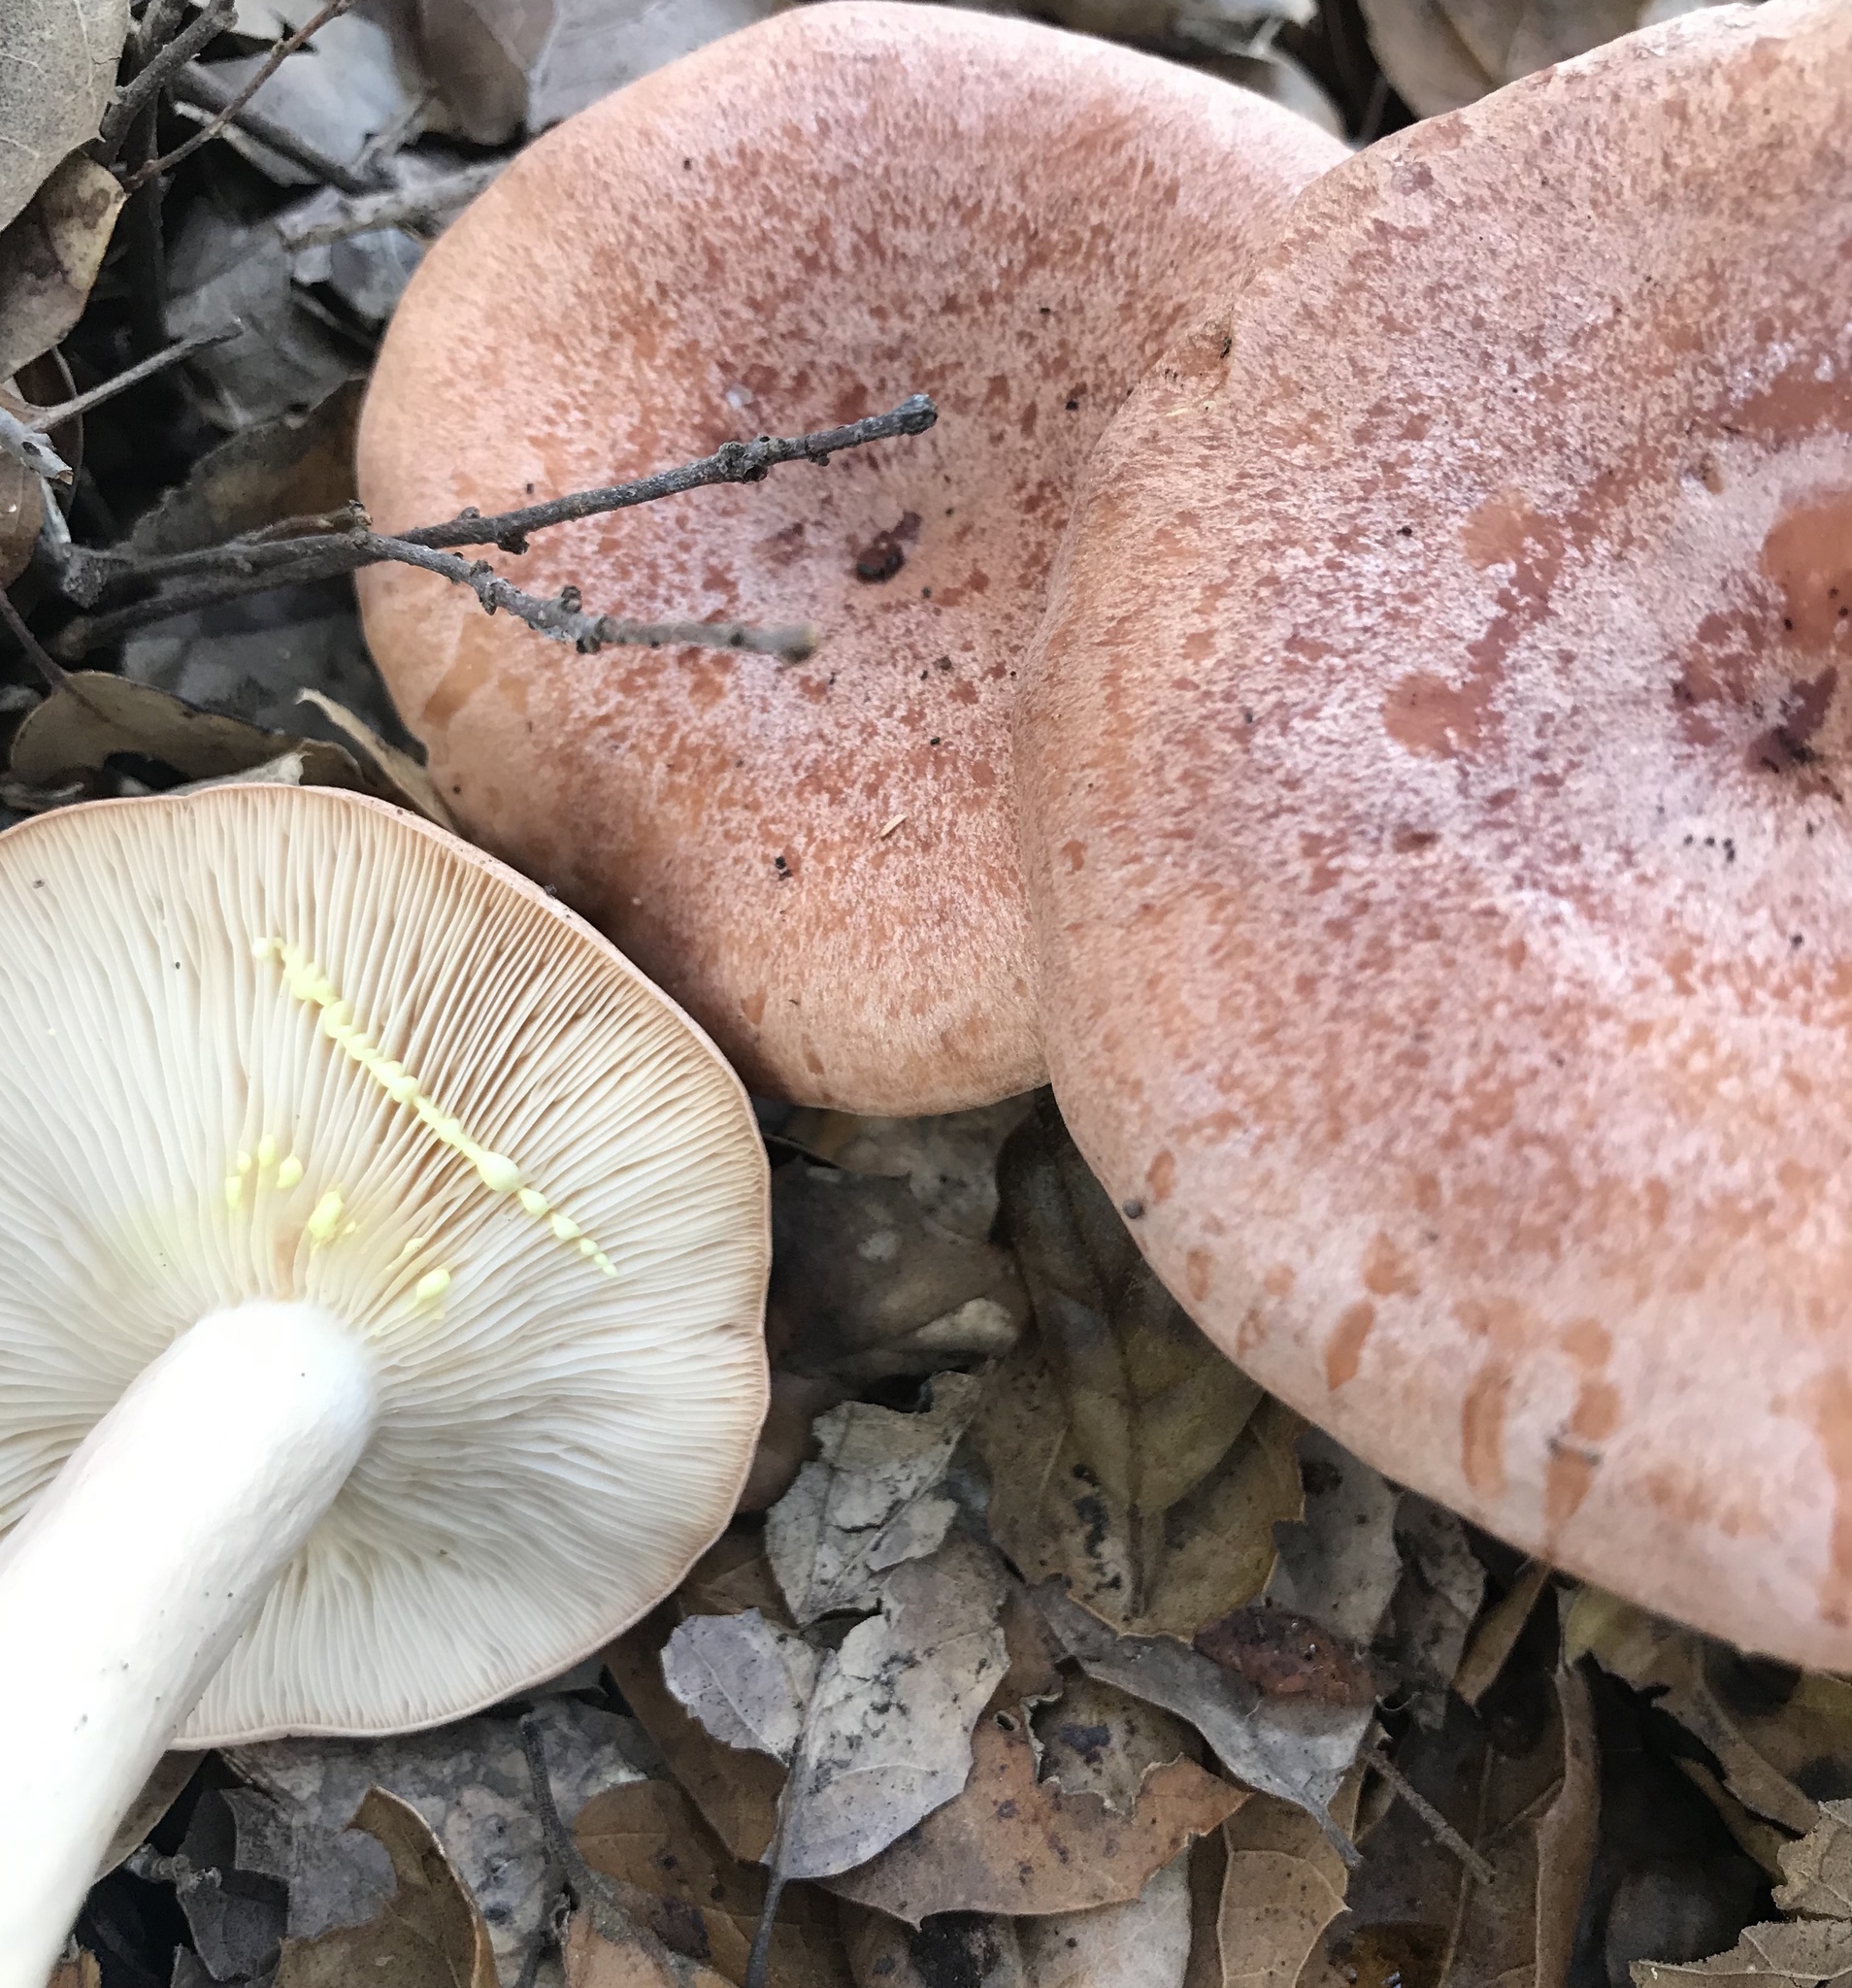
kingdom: Fungi
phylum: Basidiomycota
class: Agaricomycetes
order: Russulales
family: Russulaceae
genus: Lactarius
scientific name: Lactarius xanthogalactus
